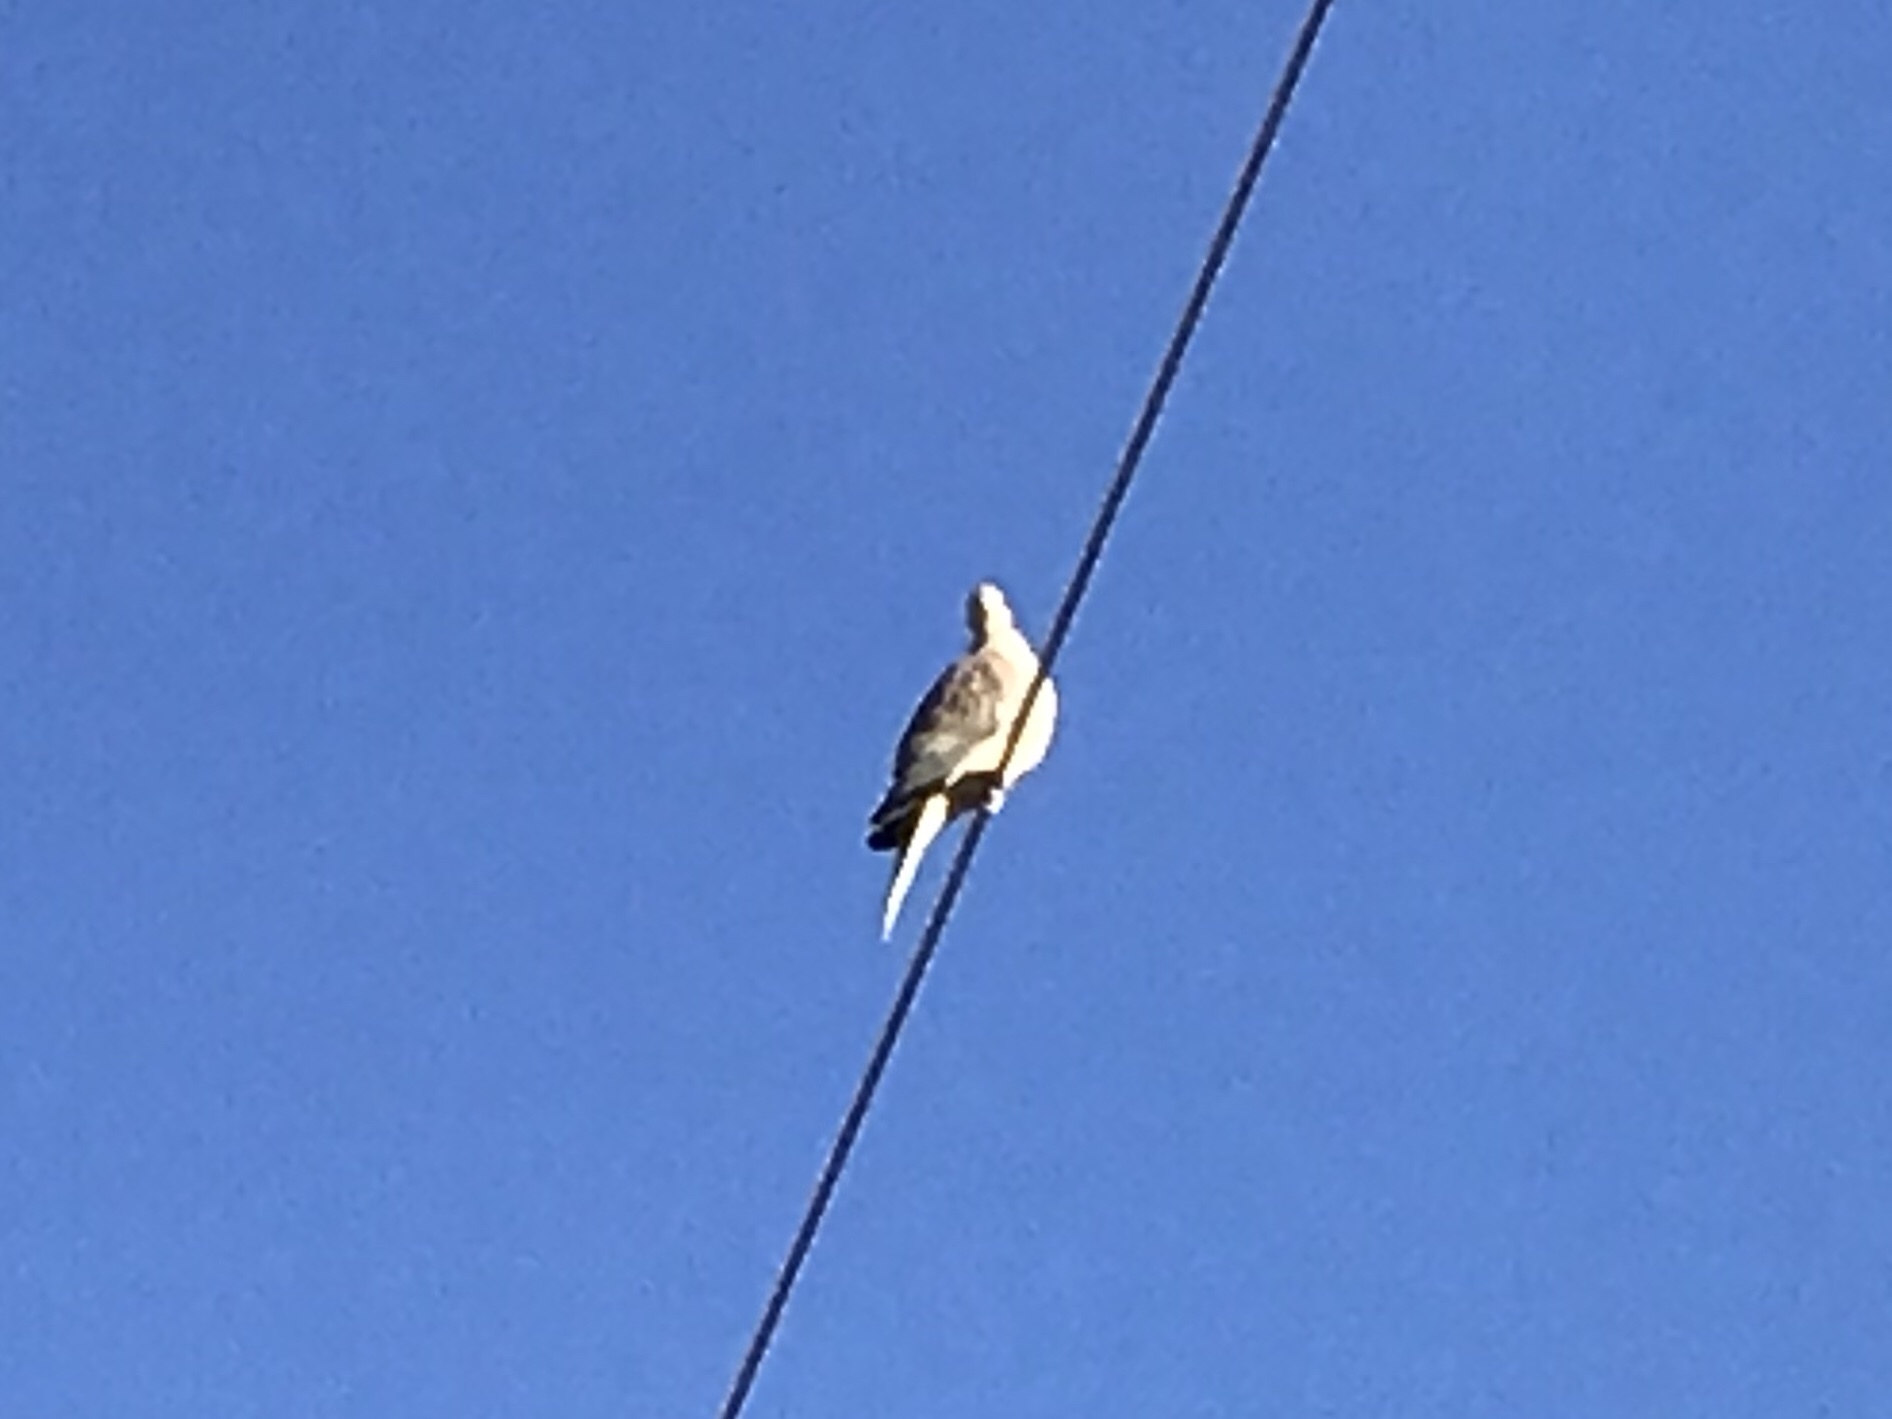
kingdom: Animalia
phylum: Chordata
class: Aves
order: Columbiformes
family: Columbidae
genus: Zenaida
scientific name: Zenaida macroura
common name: Mourning dove
